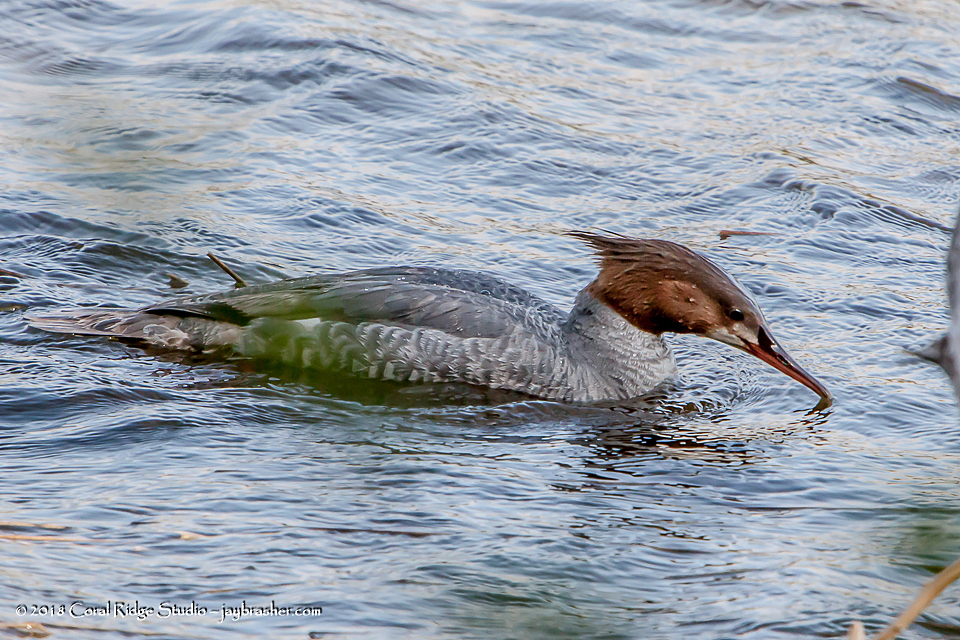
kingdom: Animalia
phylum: Chordata
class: Aves
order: Anseriformes
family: Anatidae
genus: Mergus
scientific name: Mergus merganser
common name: Common merganser
